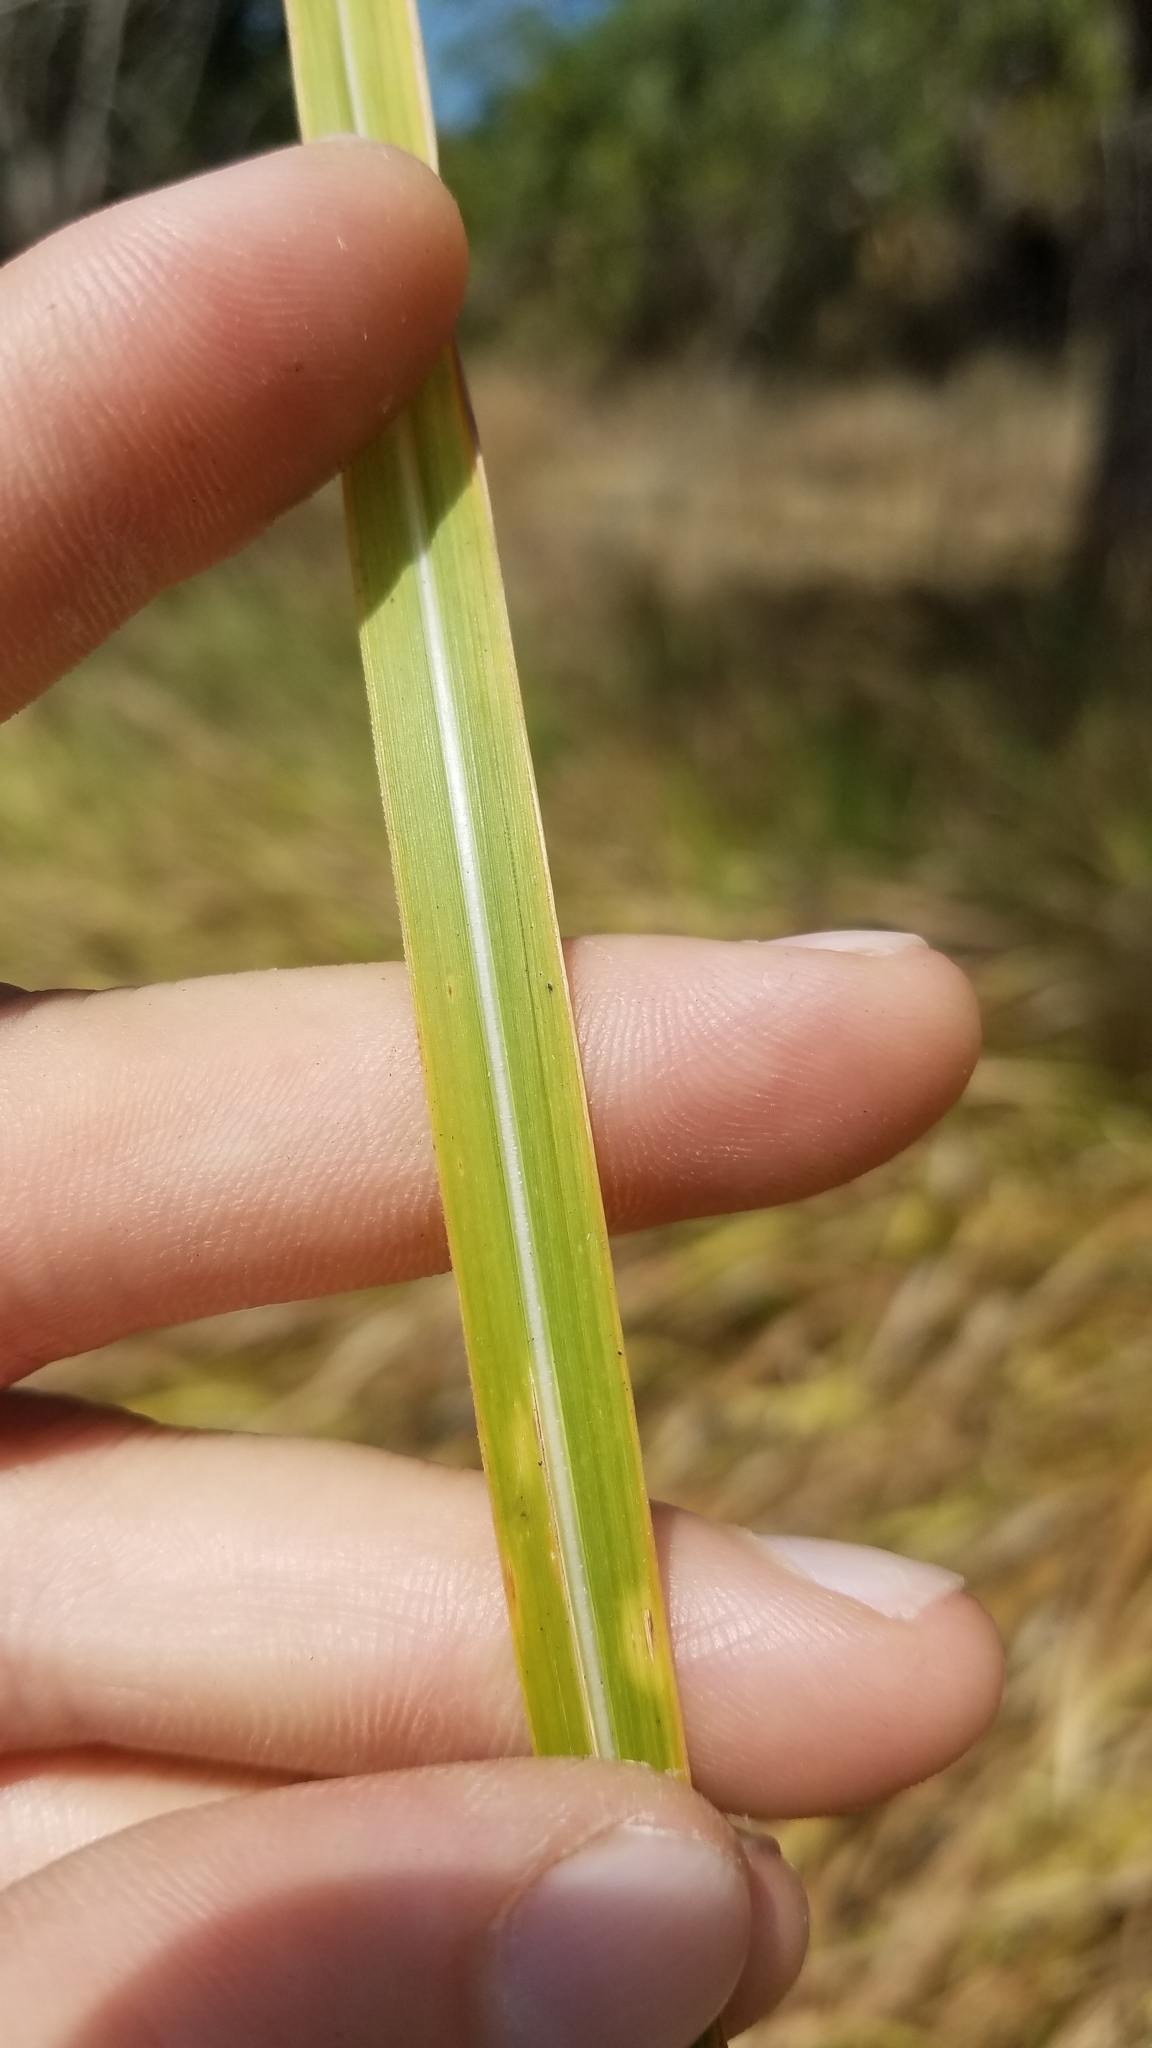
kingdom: Plantae
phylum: Tracheophyta
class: Liliopsida
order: Poales
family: Poaceae
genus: Imperata
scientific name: Imperata cylindrica
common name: Cogongrass
